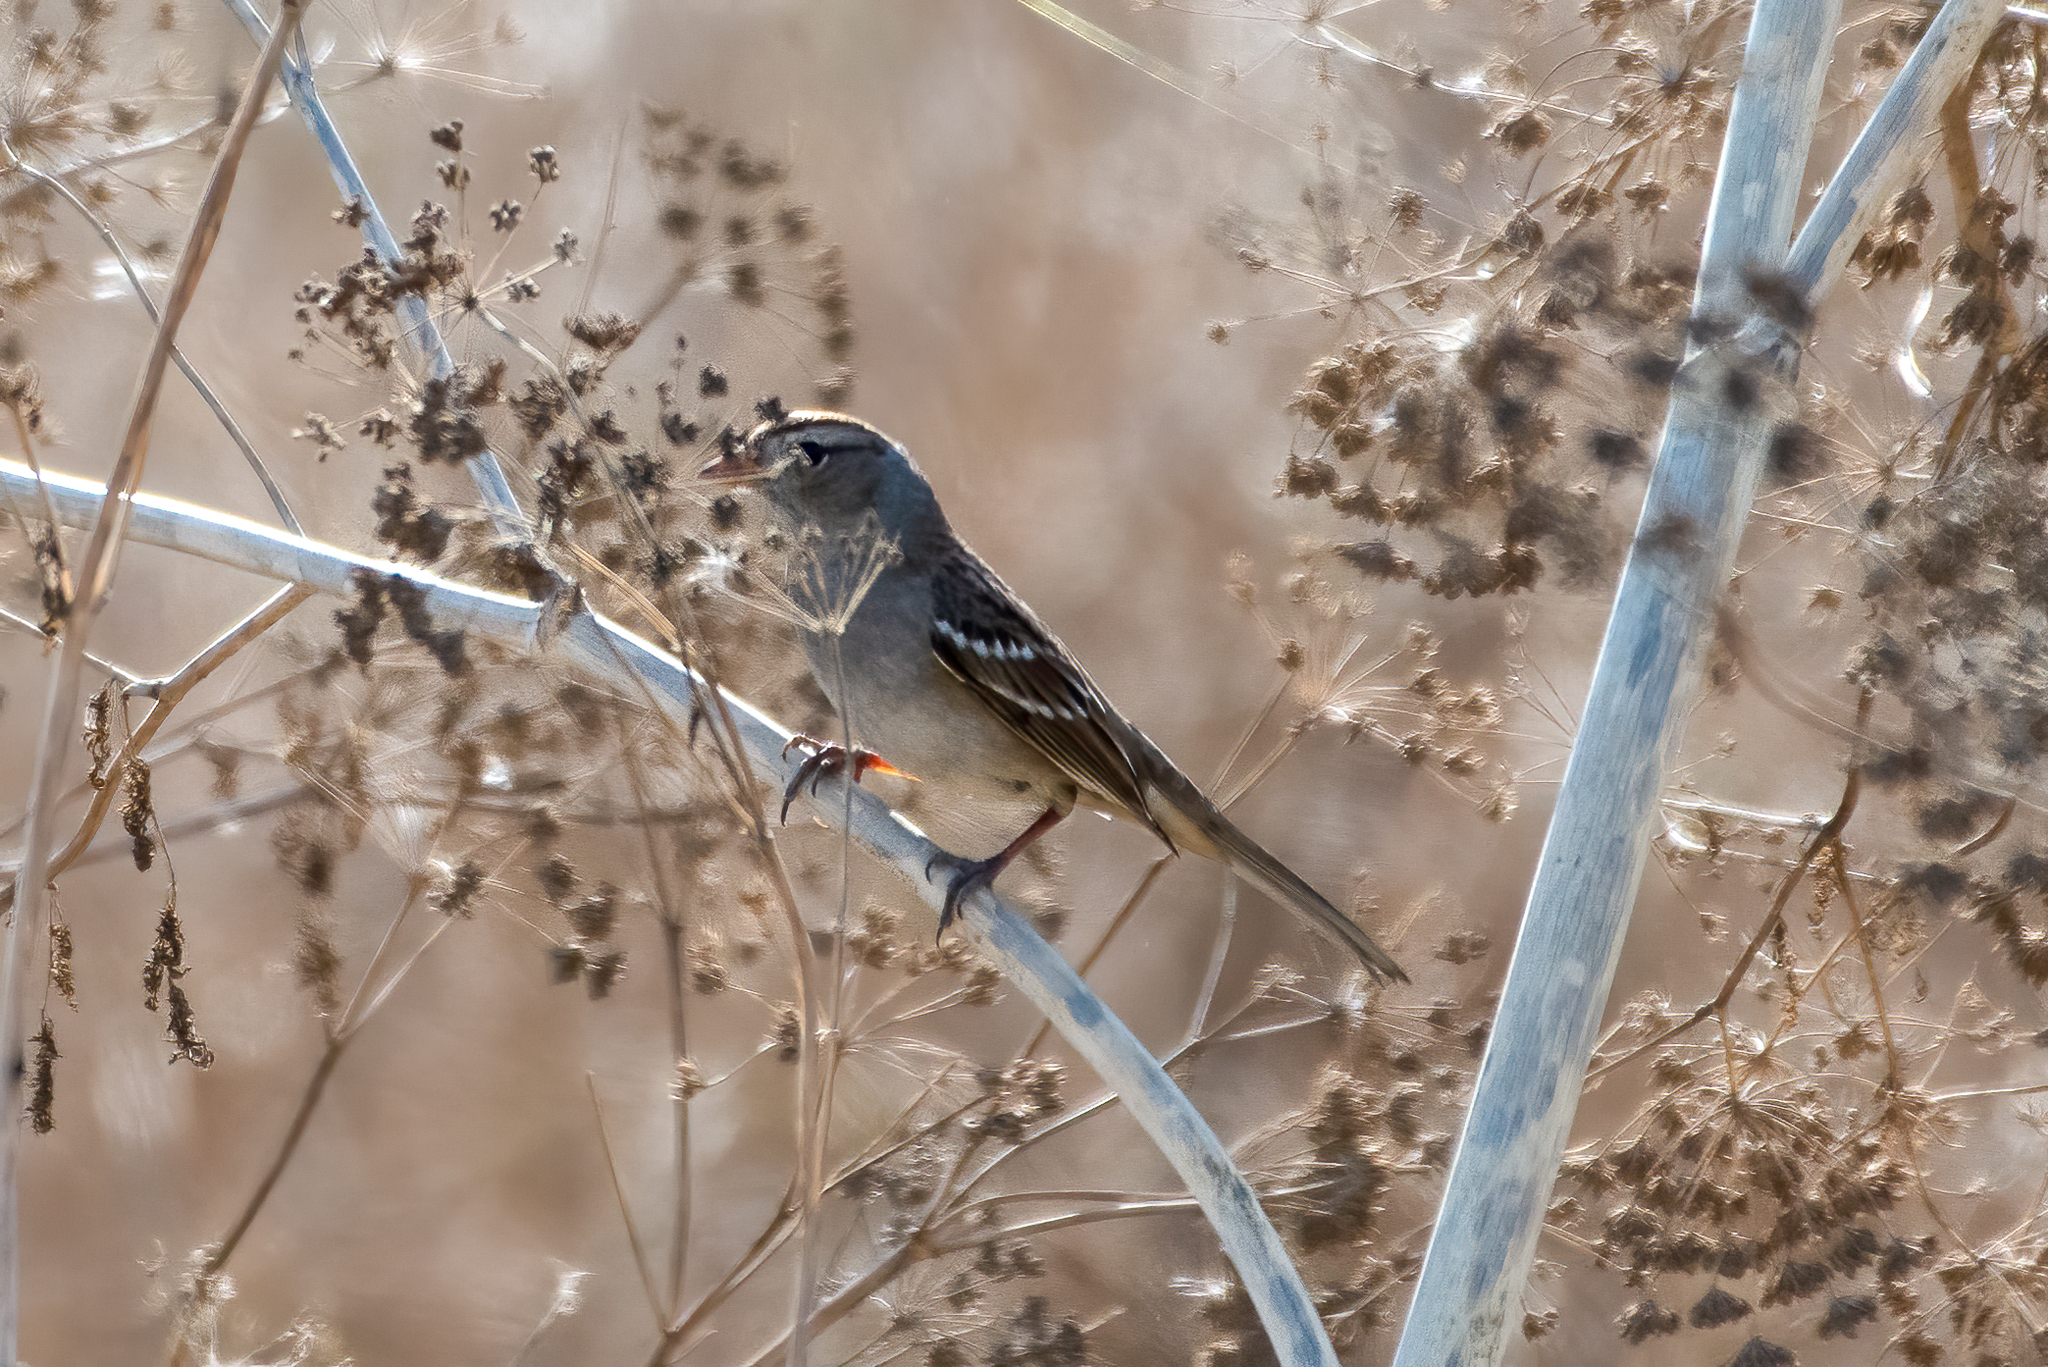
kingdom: Animalia
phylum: Chordata
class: Aves
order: Passeriformes
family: Passerellidae
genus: Zonotrichia
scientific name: Zonotrichia leucophrys
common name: White-crowned sparrow
